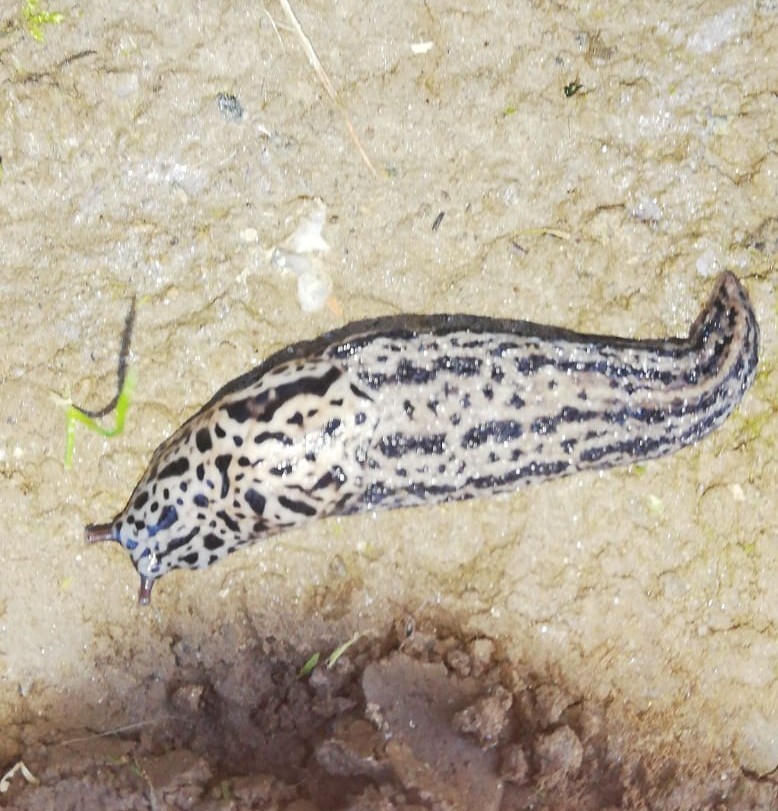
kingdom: Animalia
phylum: Mollusca
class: Gastropoda
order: Stylommatophora
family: Limacidae
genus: Limax
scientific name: Limax maximus
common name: Great grey slug
